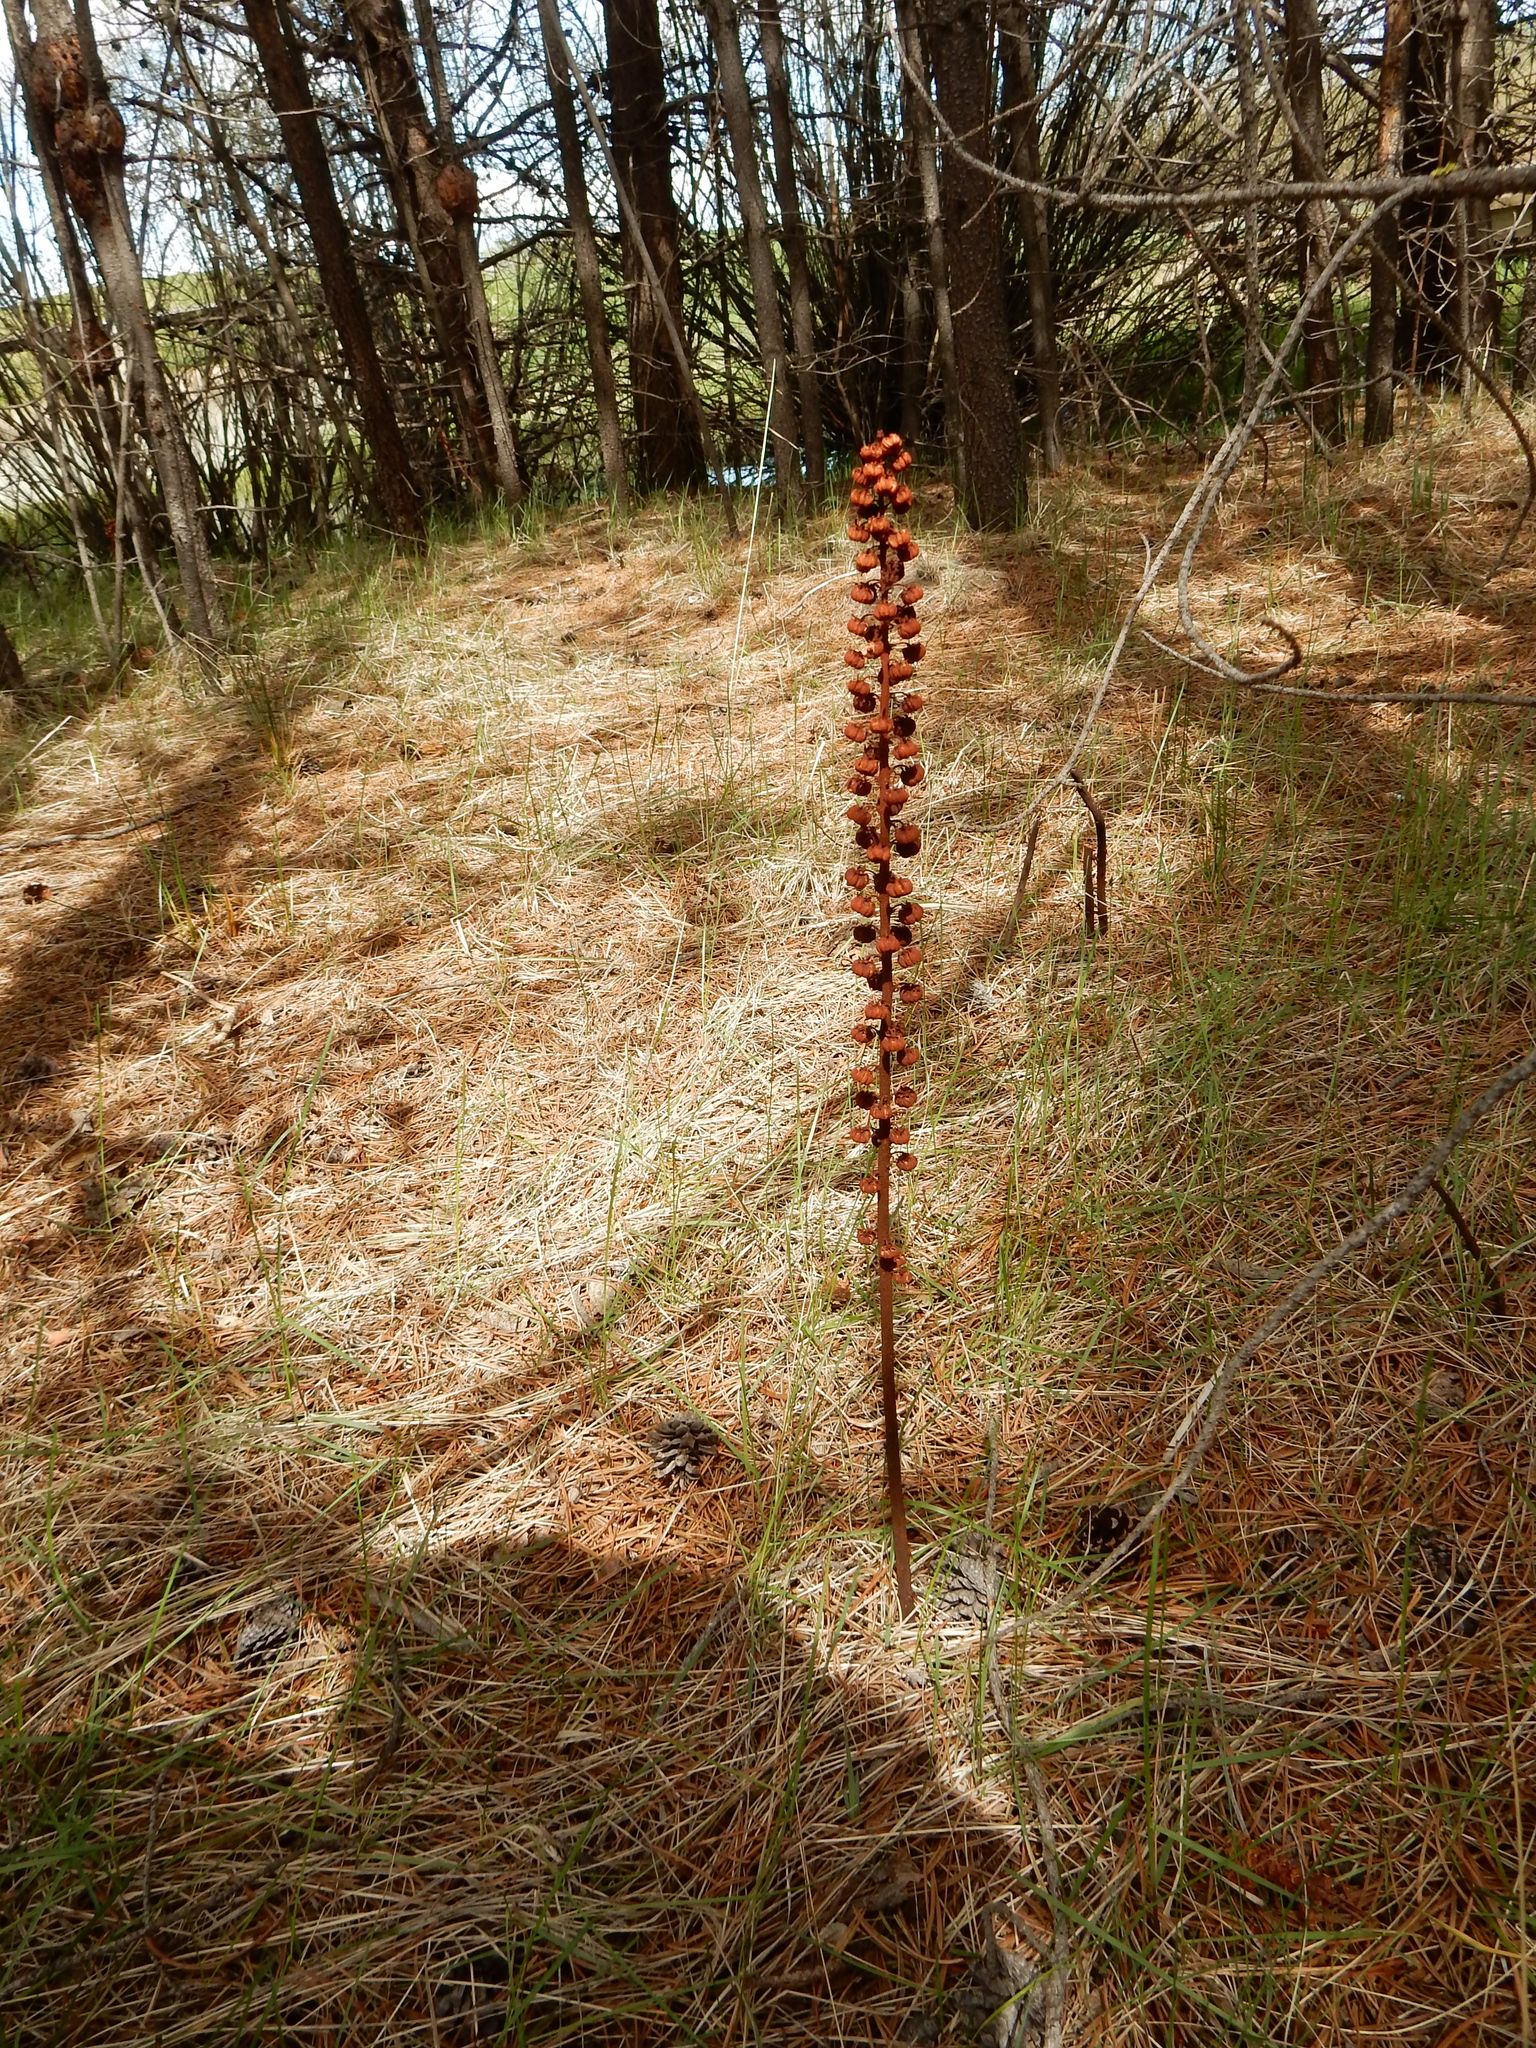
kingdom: Plantae
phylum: Tracheophyta
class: Magnoliopsida
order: Ericales
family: Ericaceae
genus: Pterospora
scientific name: Pterospora andromedea
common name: Giant bird's-nest
